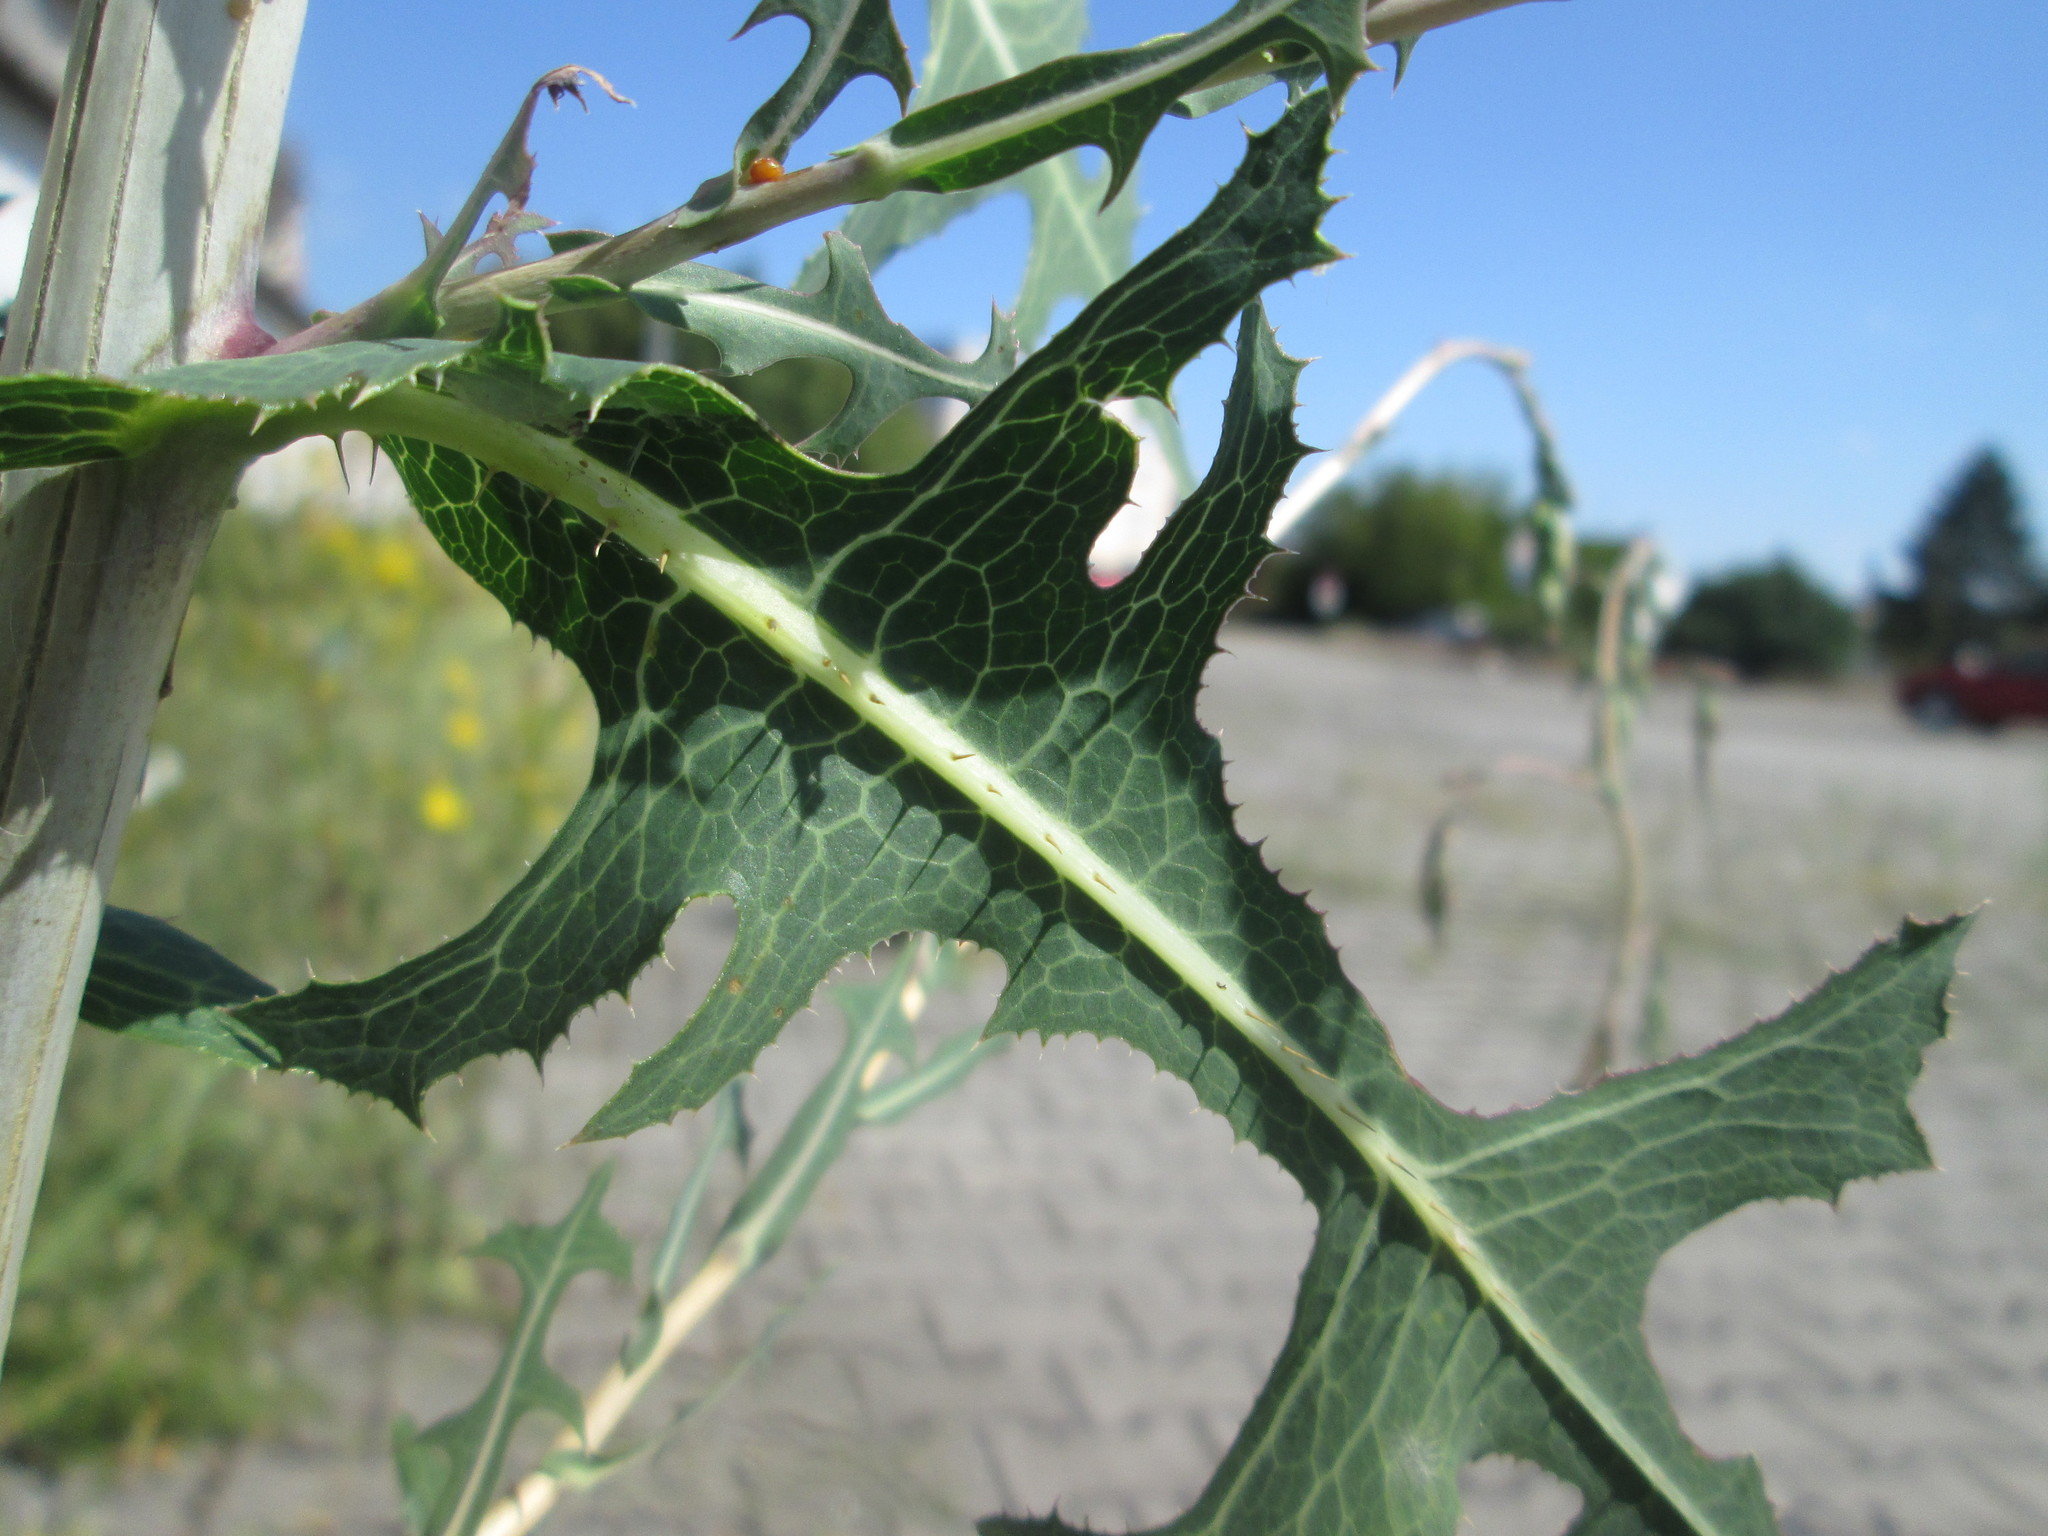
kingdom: Plantae
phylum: Tracheophyta
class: Magnoliopsida
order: Asterales
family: Asteraceae
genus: Lactuca
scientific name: Lactuca serriola
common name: Prickly lettuce
